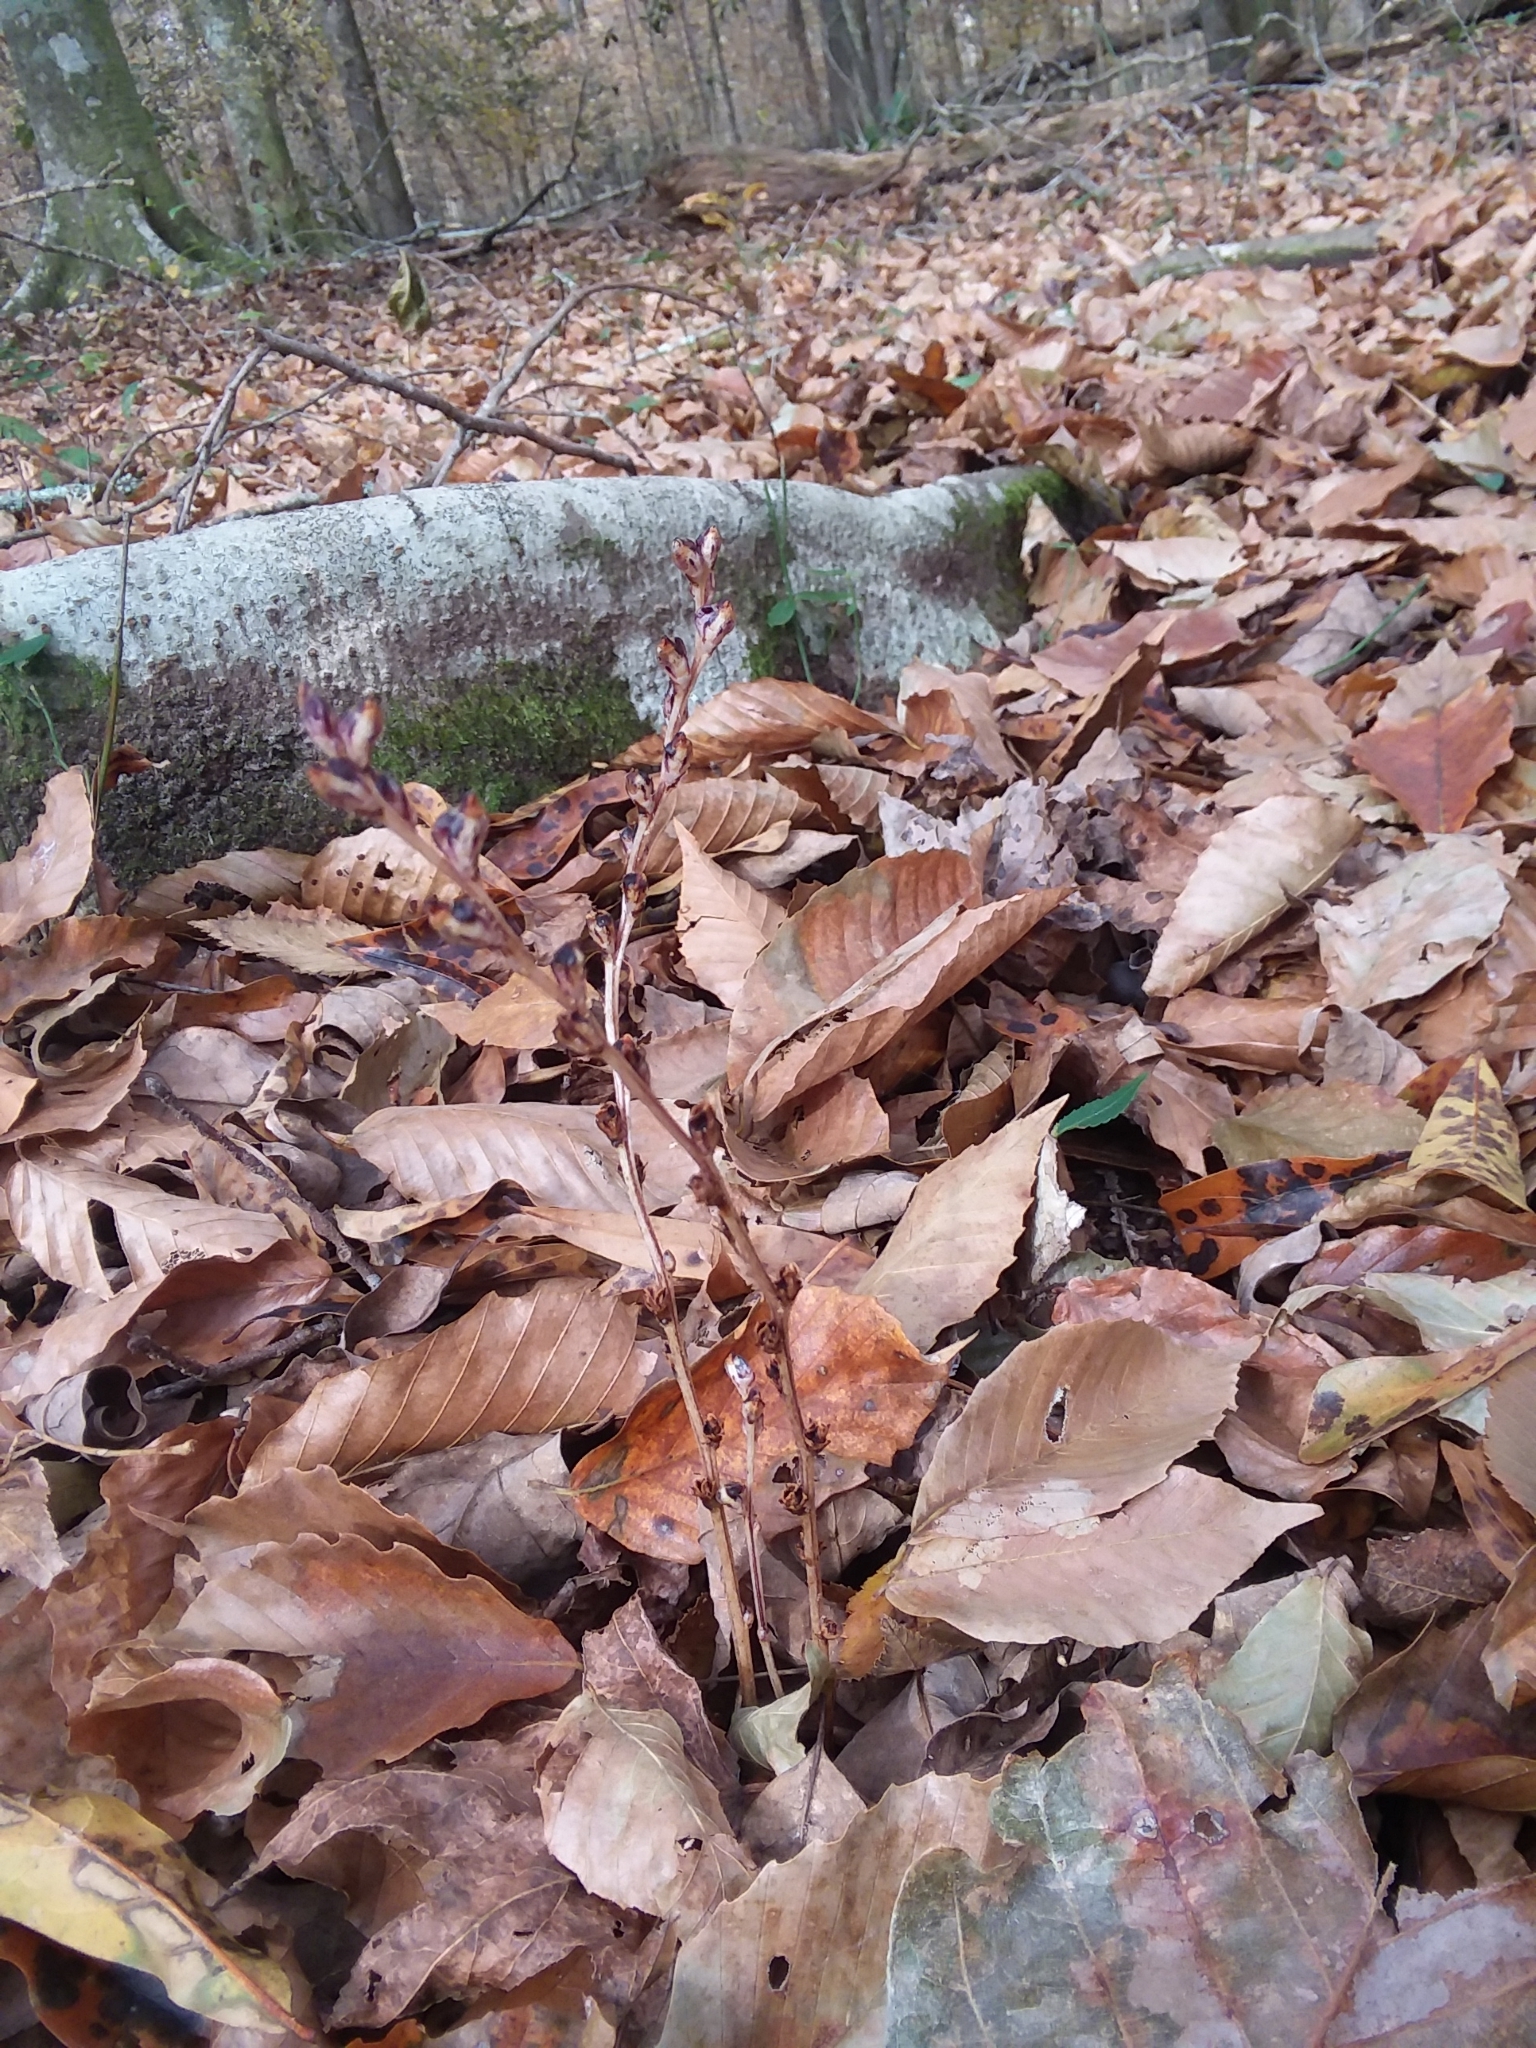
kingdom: Plantae
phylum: Tracheophyta
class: Magnoliopsida
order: Lamiales
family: Orobanchaceae
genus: Epifagus
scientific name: Epifagus virginiana
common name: Beechdrops
